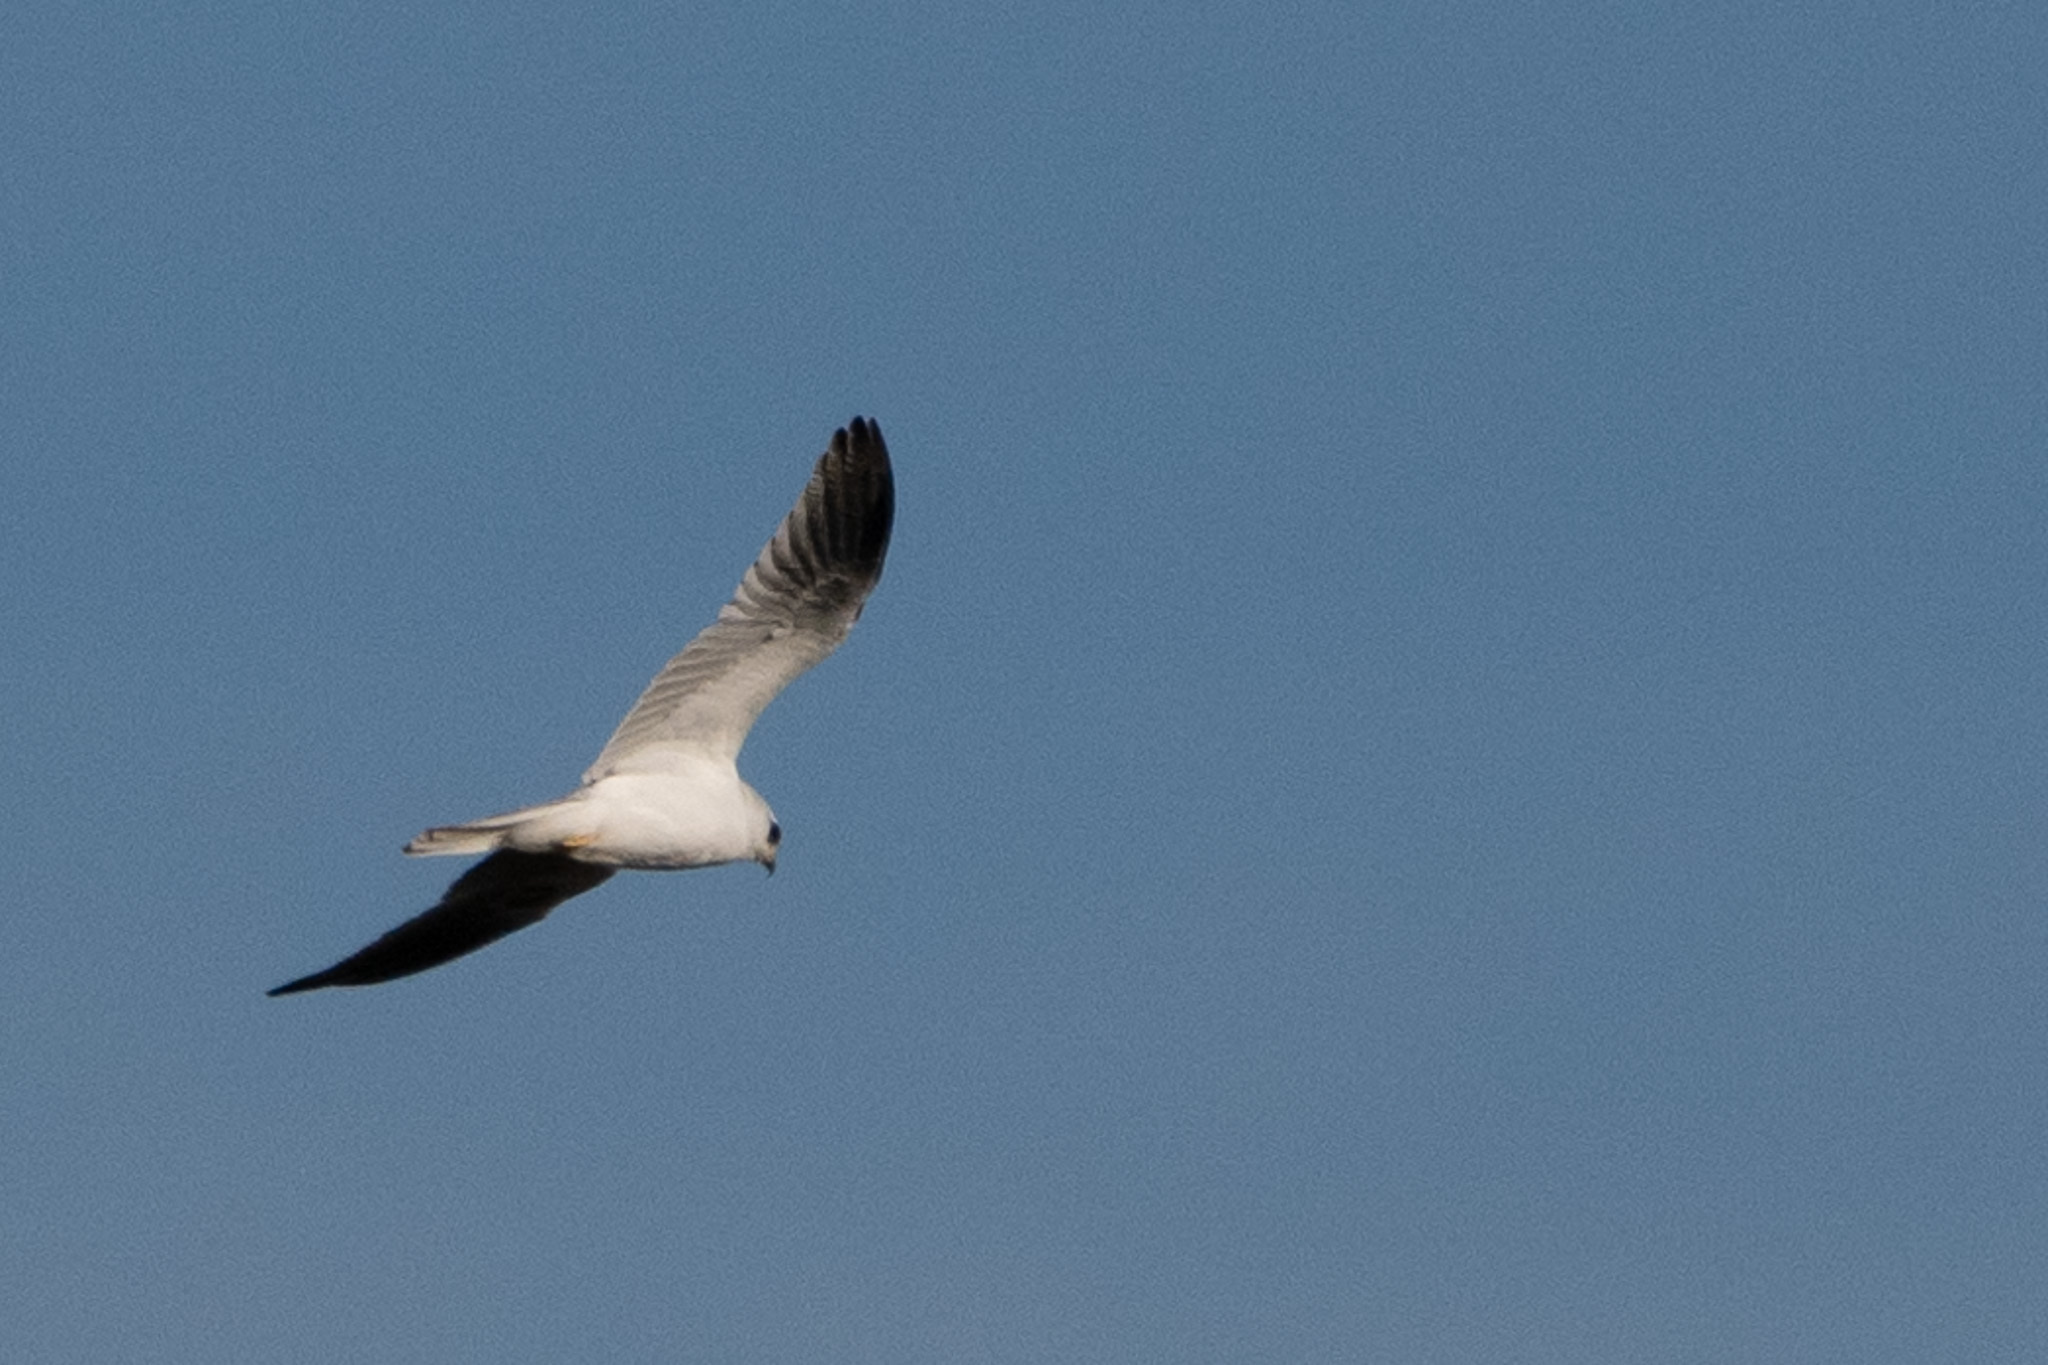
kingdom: Animalia
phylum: Chordata
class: Aves
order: Accipitriformes
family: Accipitridae
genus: Elanus
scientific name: Elanus leucurus
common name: White-tailed kite
